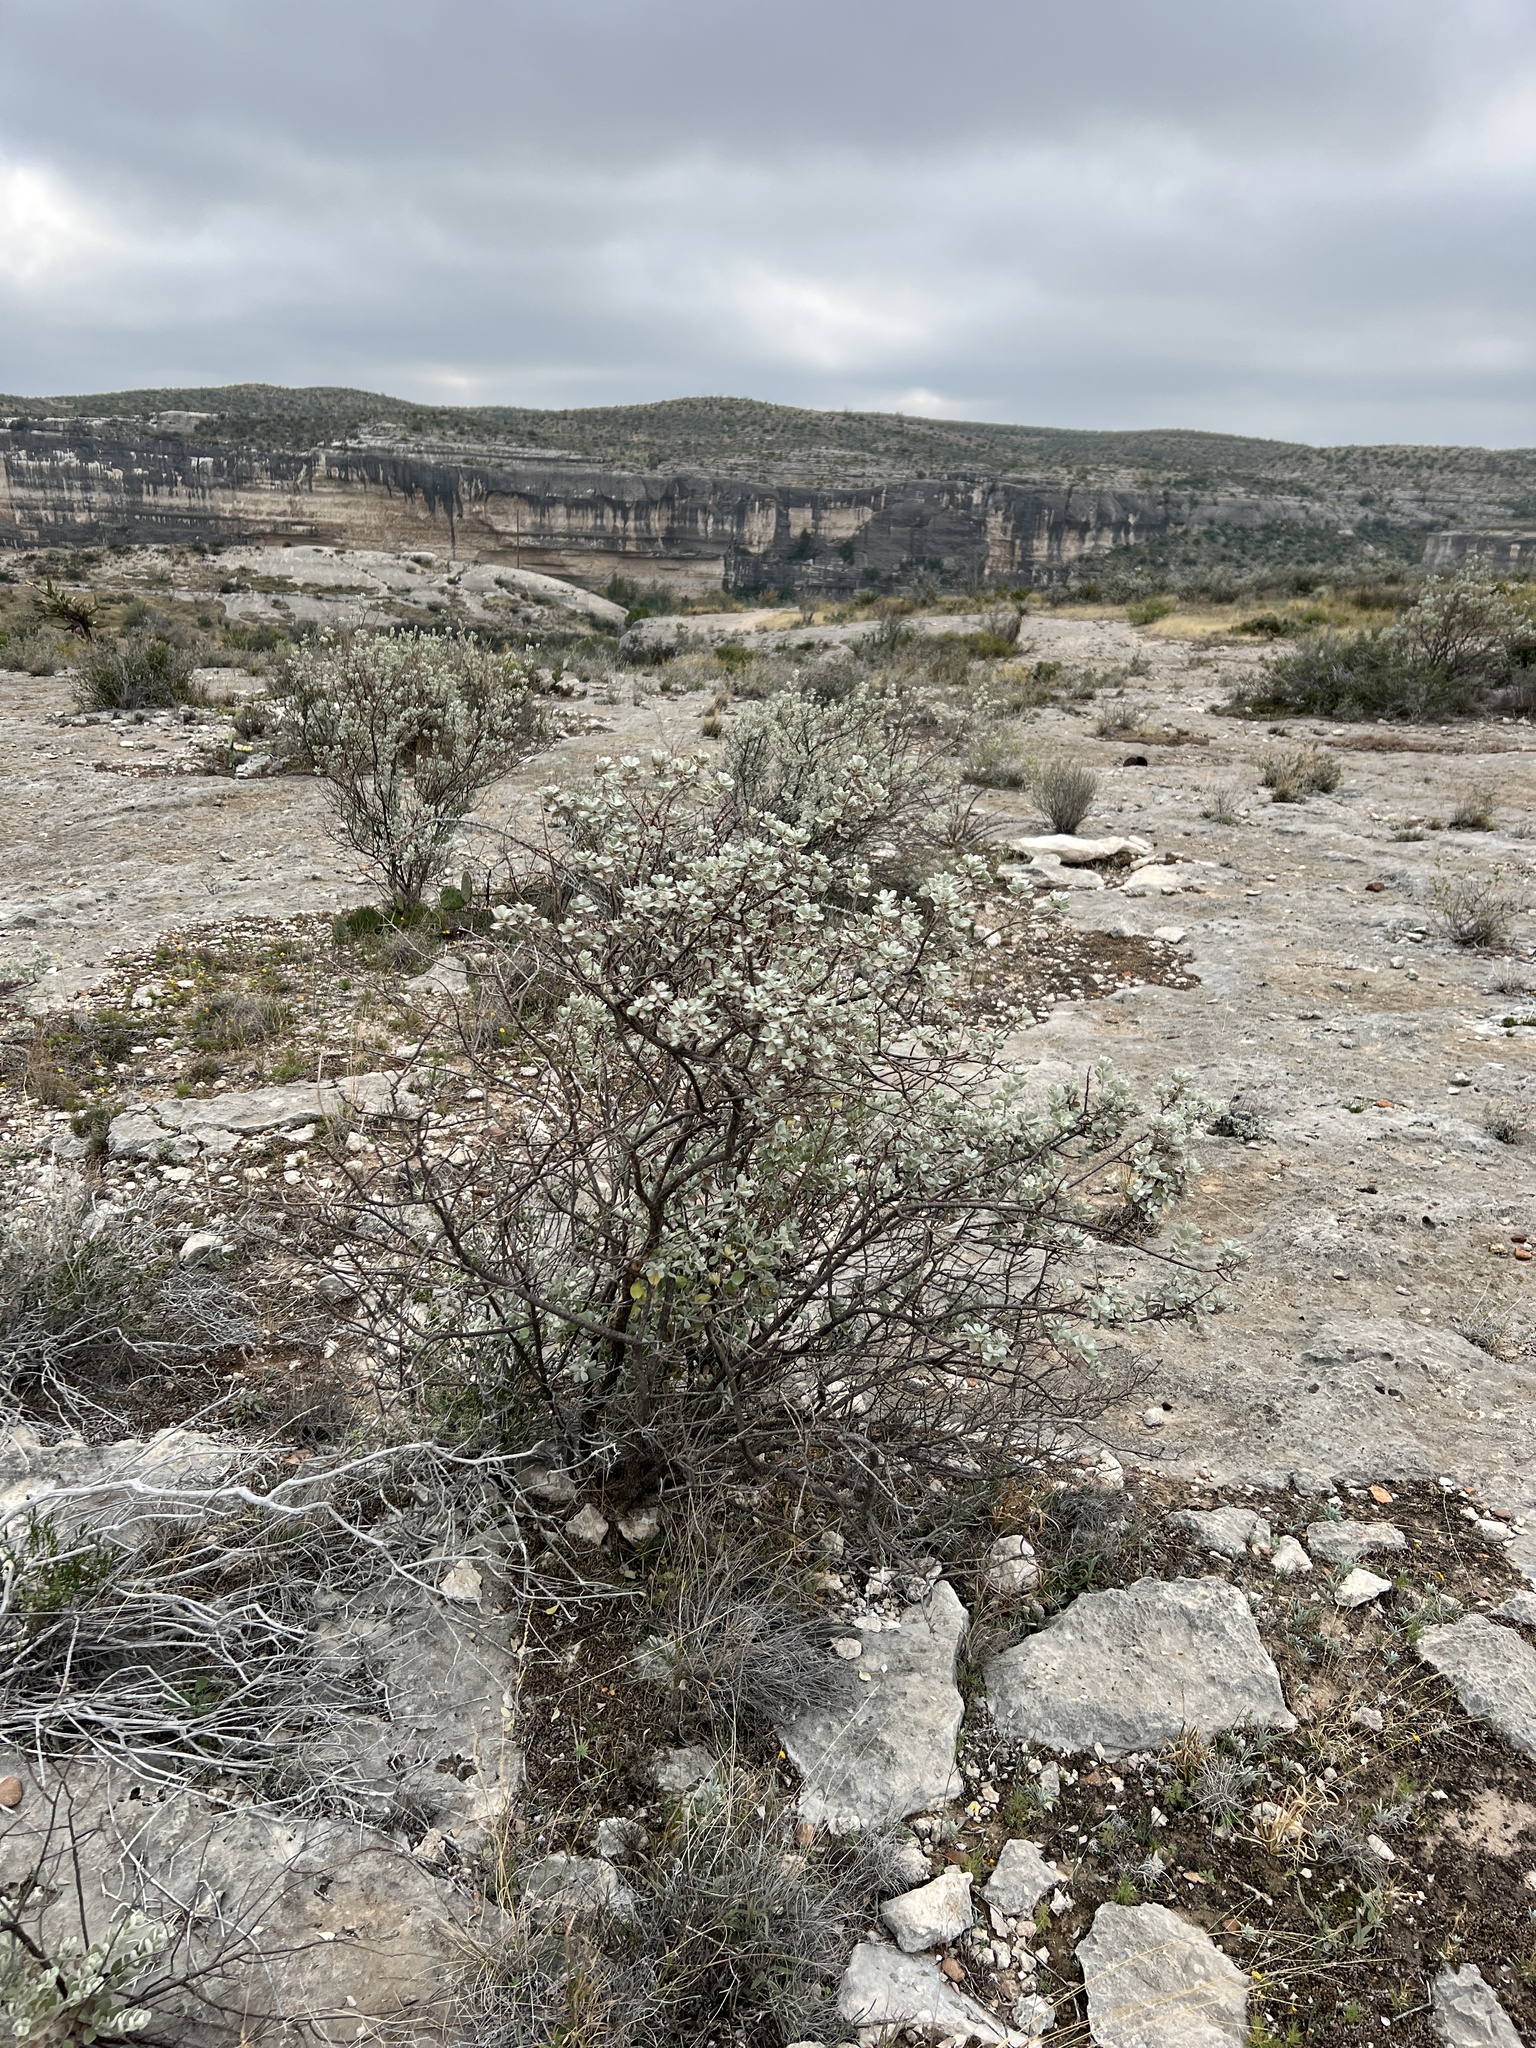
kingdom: Plantae
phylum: Tracheophyta
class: Magnoliopsida
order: Lamiales
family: Scrophulariaceae
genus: Leucophyllum
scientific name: Leucophyllum frutescens
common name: Texas silverleaf
